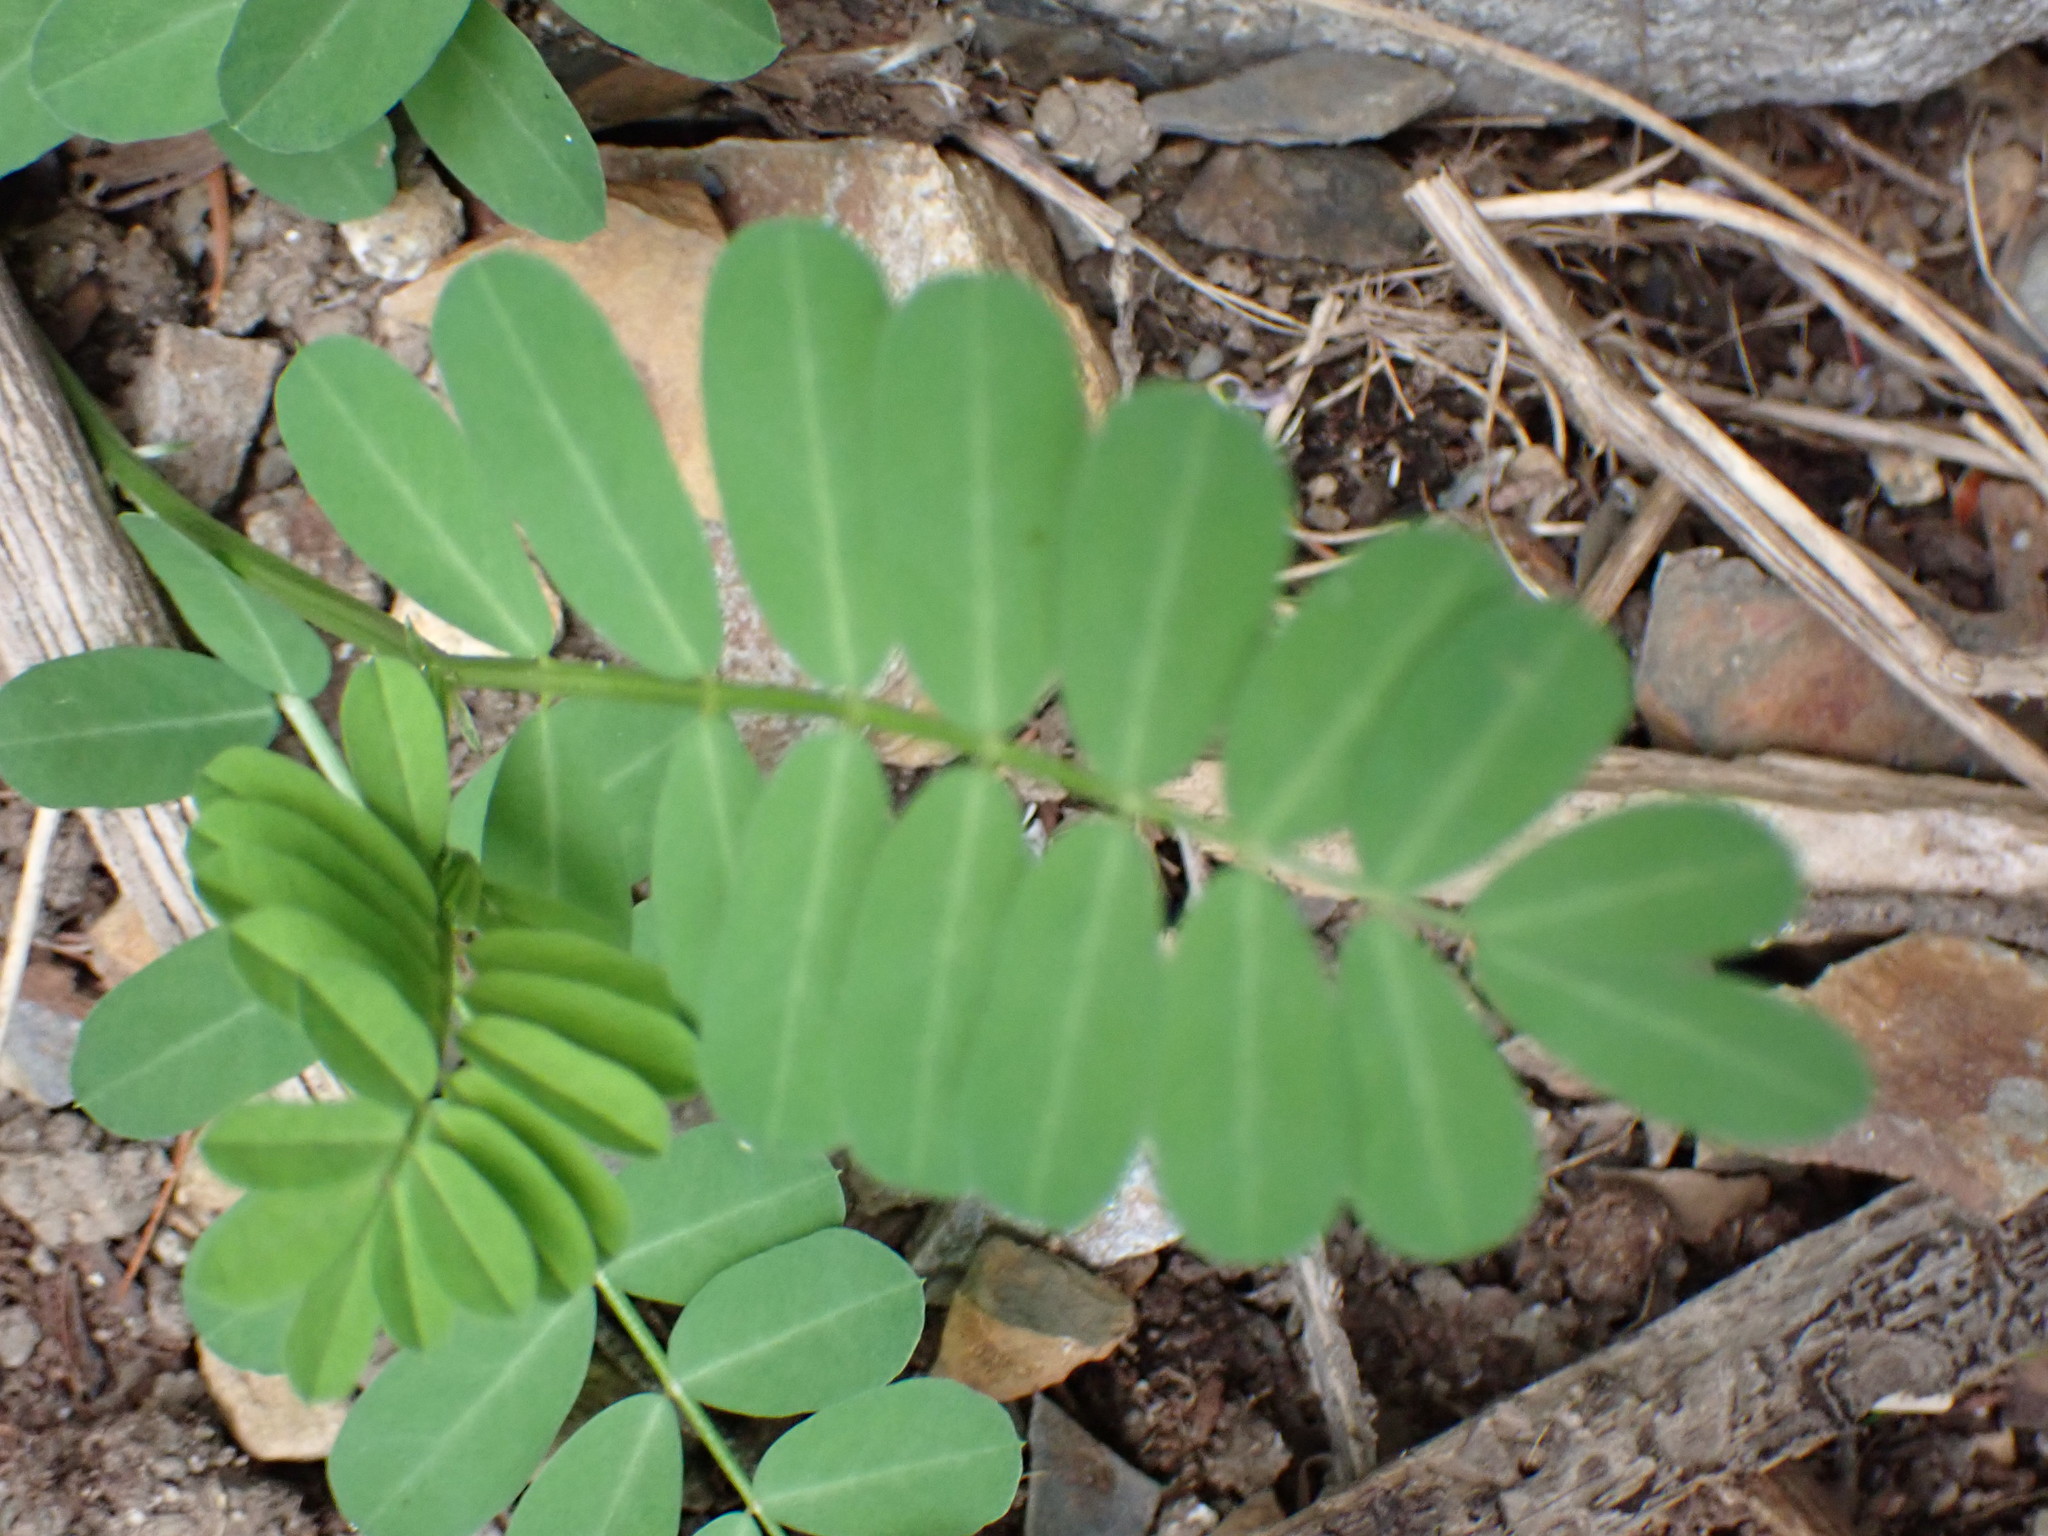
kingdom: Plantae
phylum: Tracheophyta
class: Magnoliopsida
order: Fabales
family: Fabaceae
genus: Coronilla
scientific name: Coronilla varia
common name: Crownvetch
